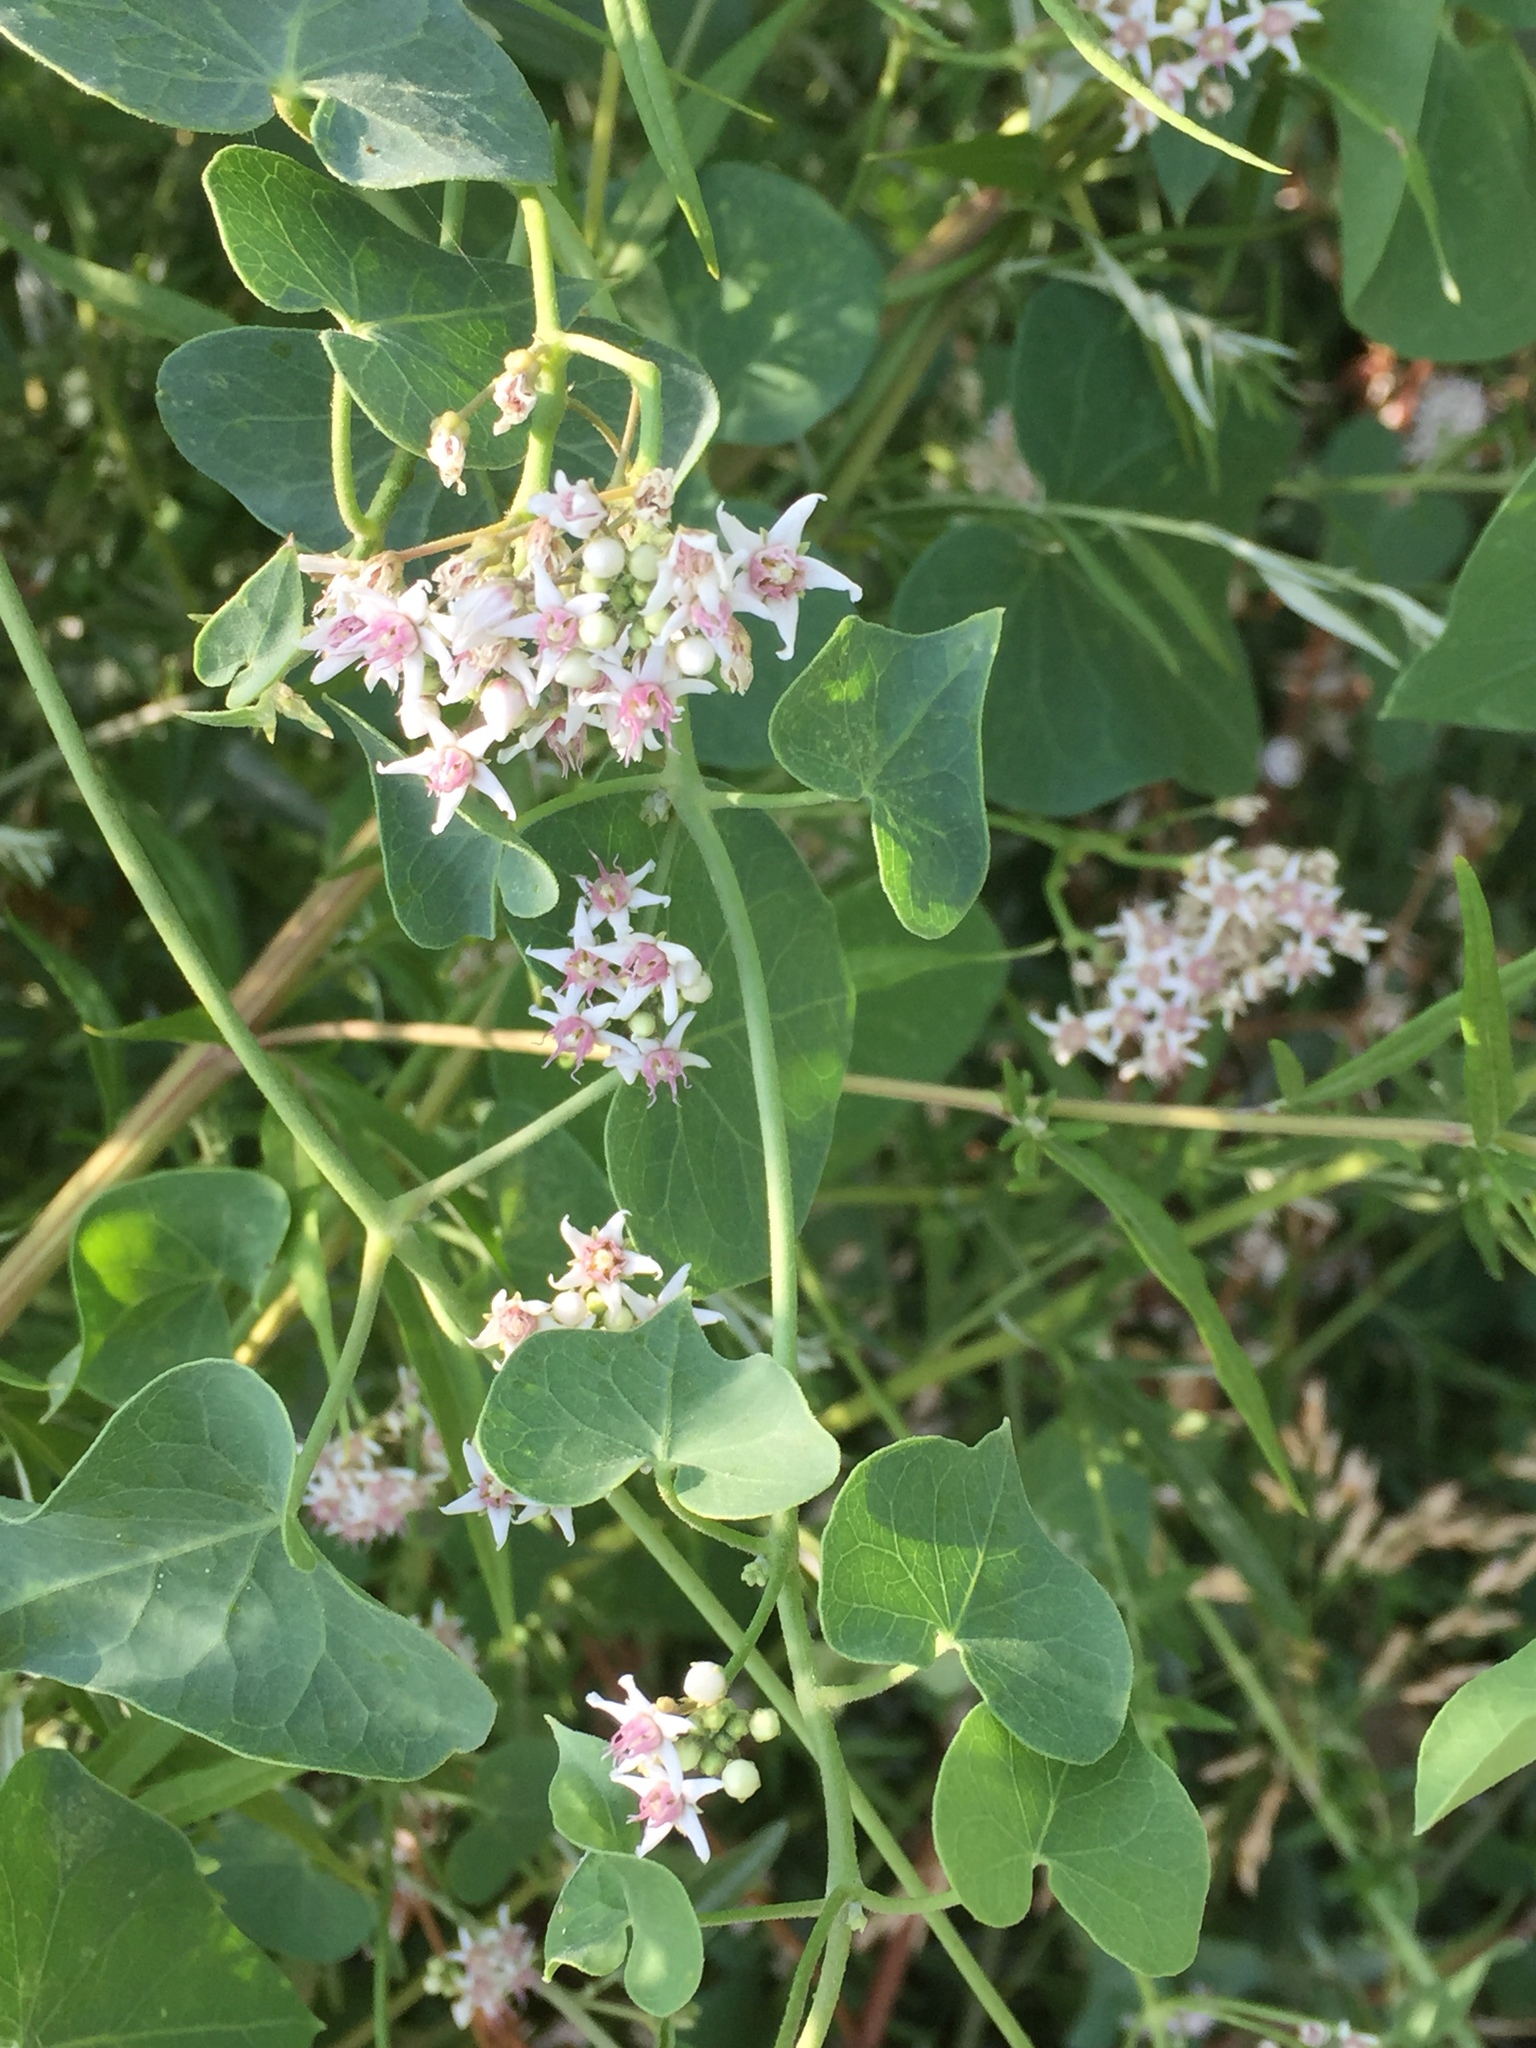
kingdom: Plantae
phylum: Tracheophyta
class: Magnoliopsida
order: Gentianales
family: Apocynaceae
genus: Cynanchum
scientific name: Cynanchum acutum
